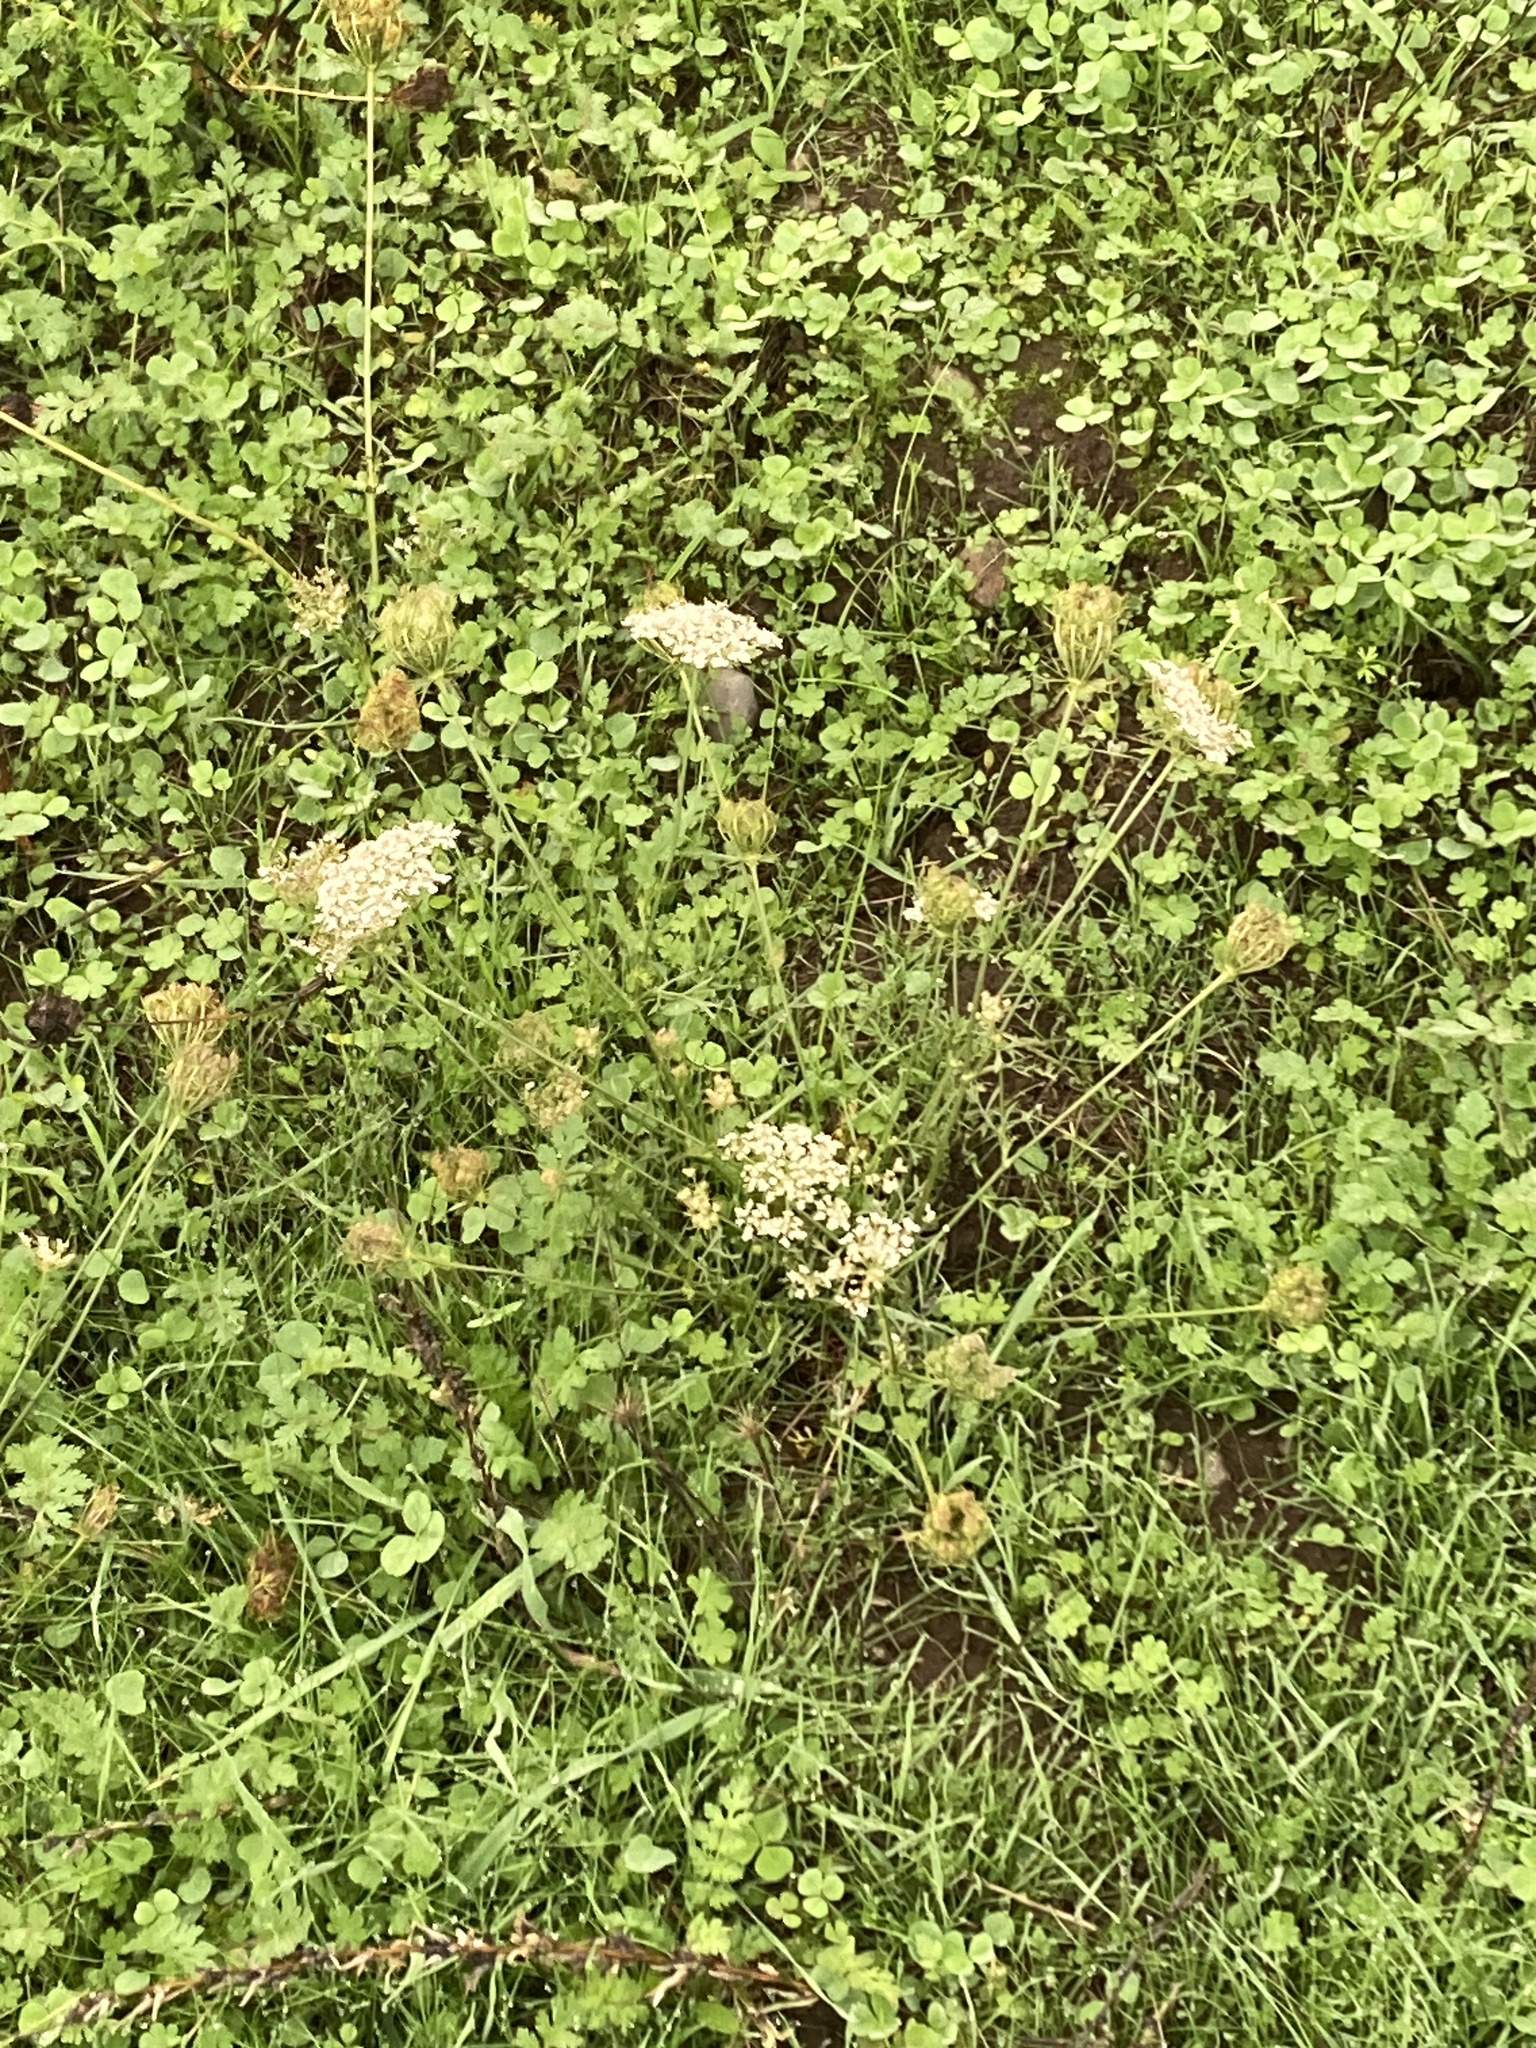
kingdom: Plantae
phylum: Tracheophyta
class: Magnoliopsida
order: Apiales
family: Apiaceae
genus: Daucus
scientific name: Daucus carota
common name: Wild carrot
